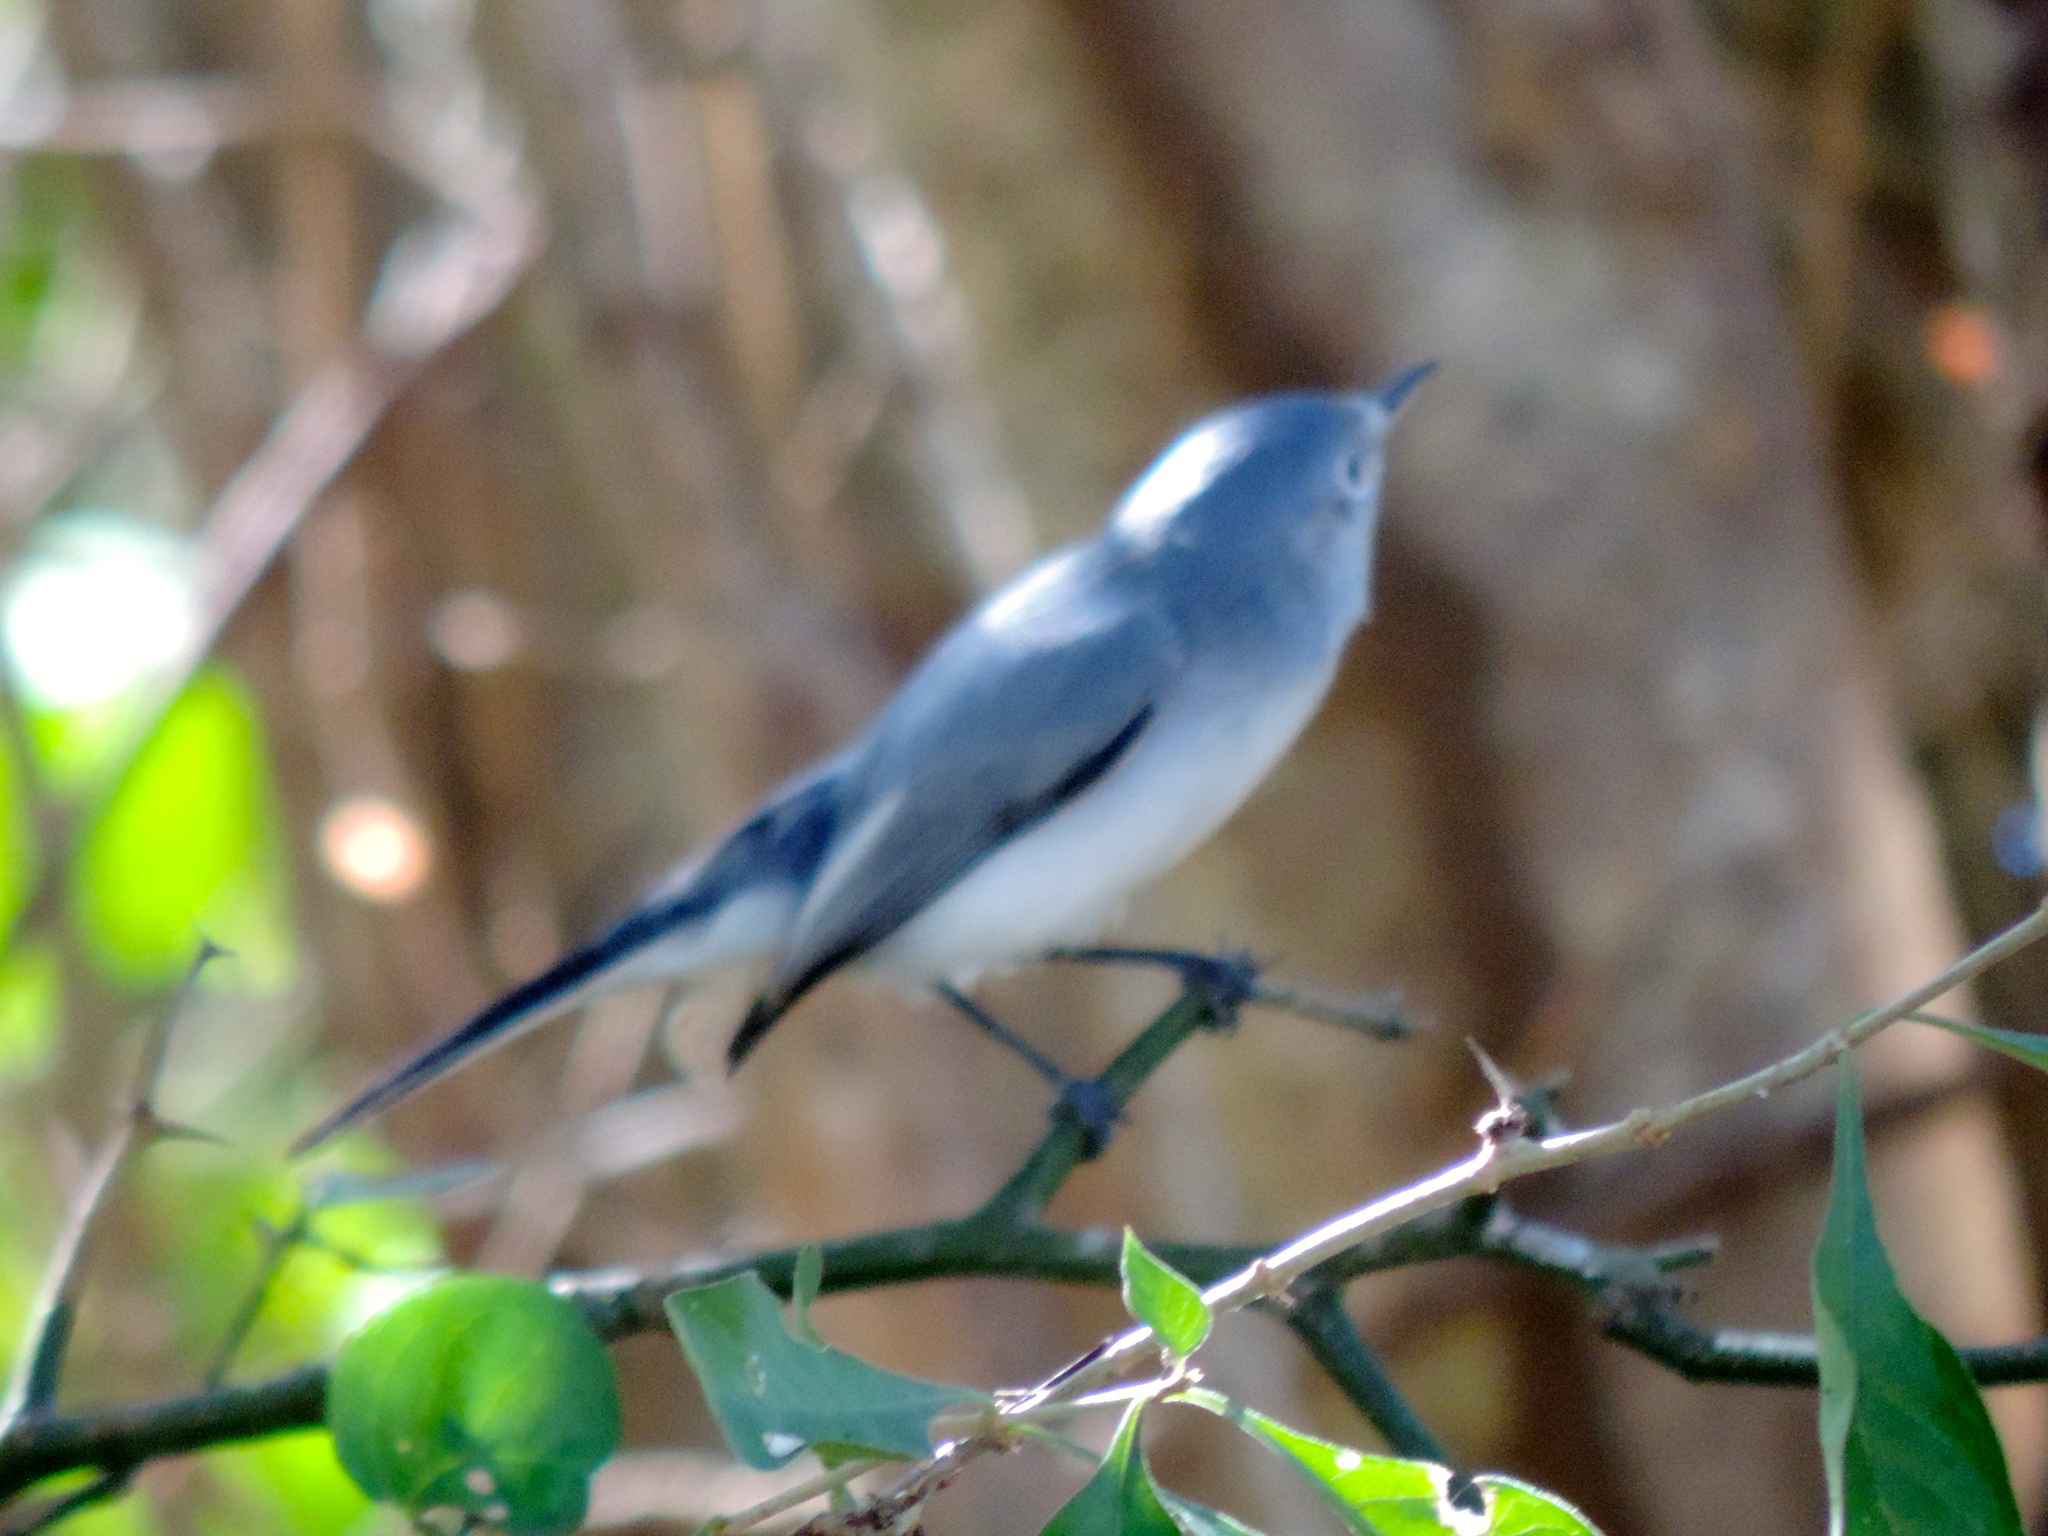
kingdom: Animalia
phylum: Chordata
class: Aves
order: Passeriformes
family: Polioptilidae
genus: Polioptila
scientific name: Polioptila caerulea
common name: Blue-gray gnatcatcher
